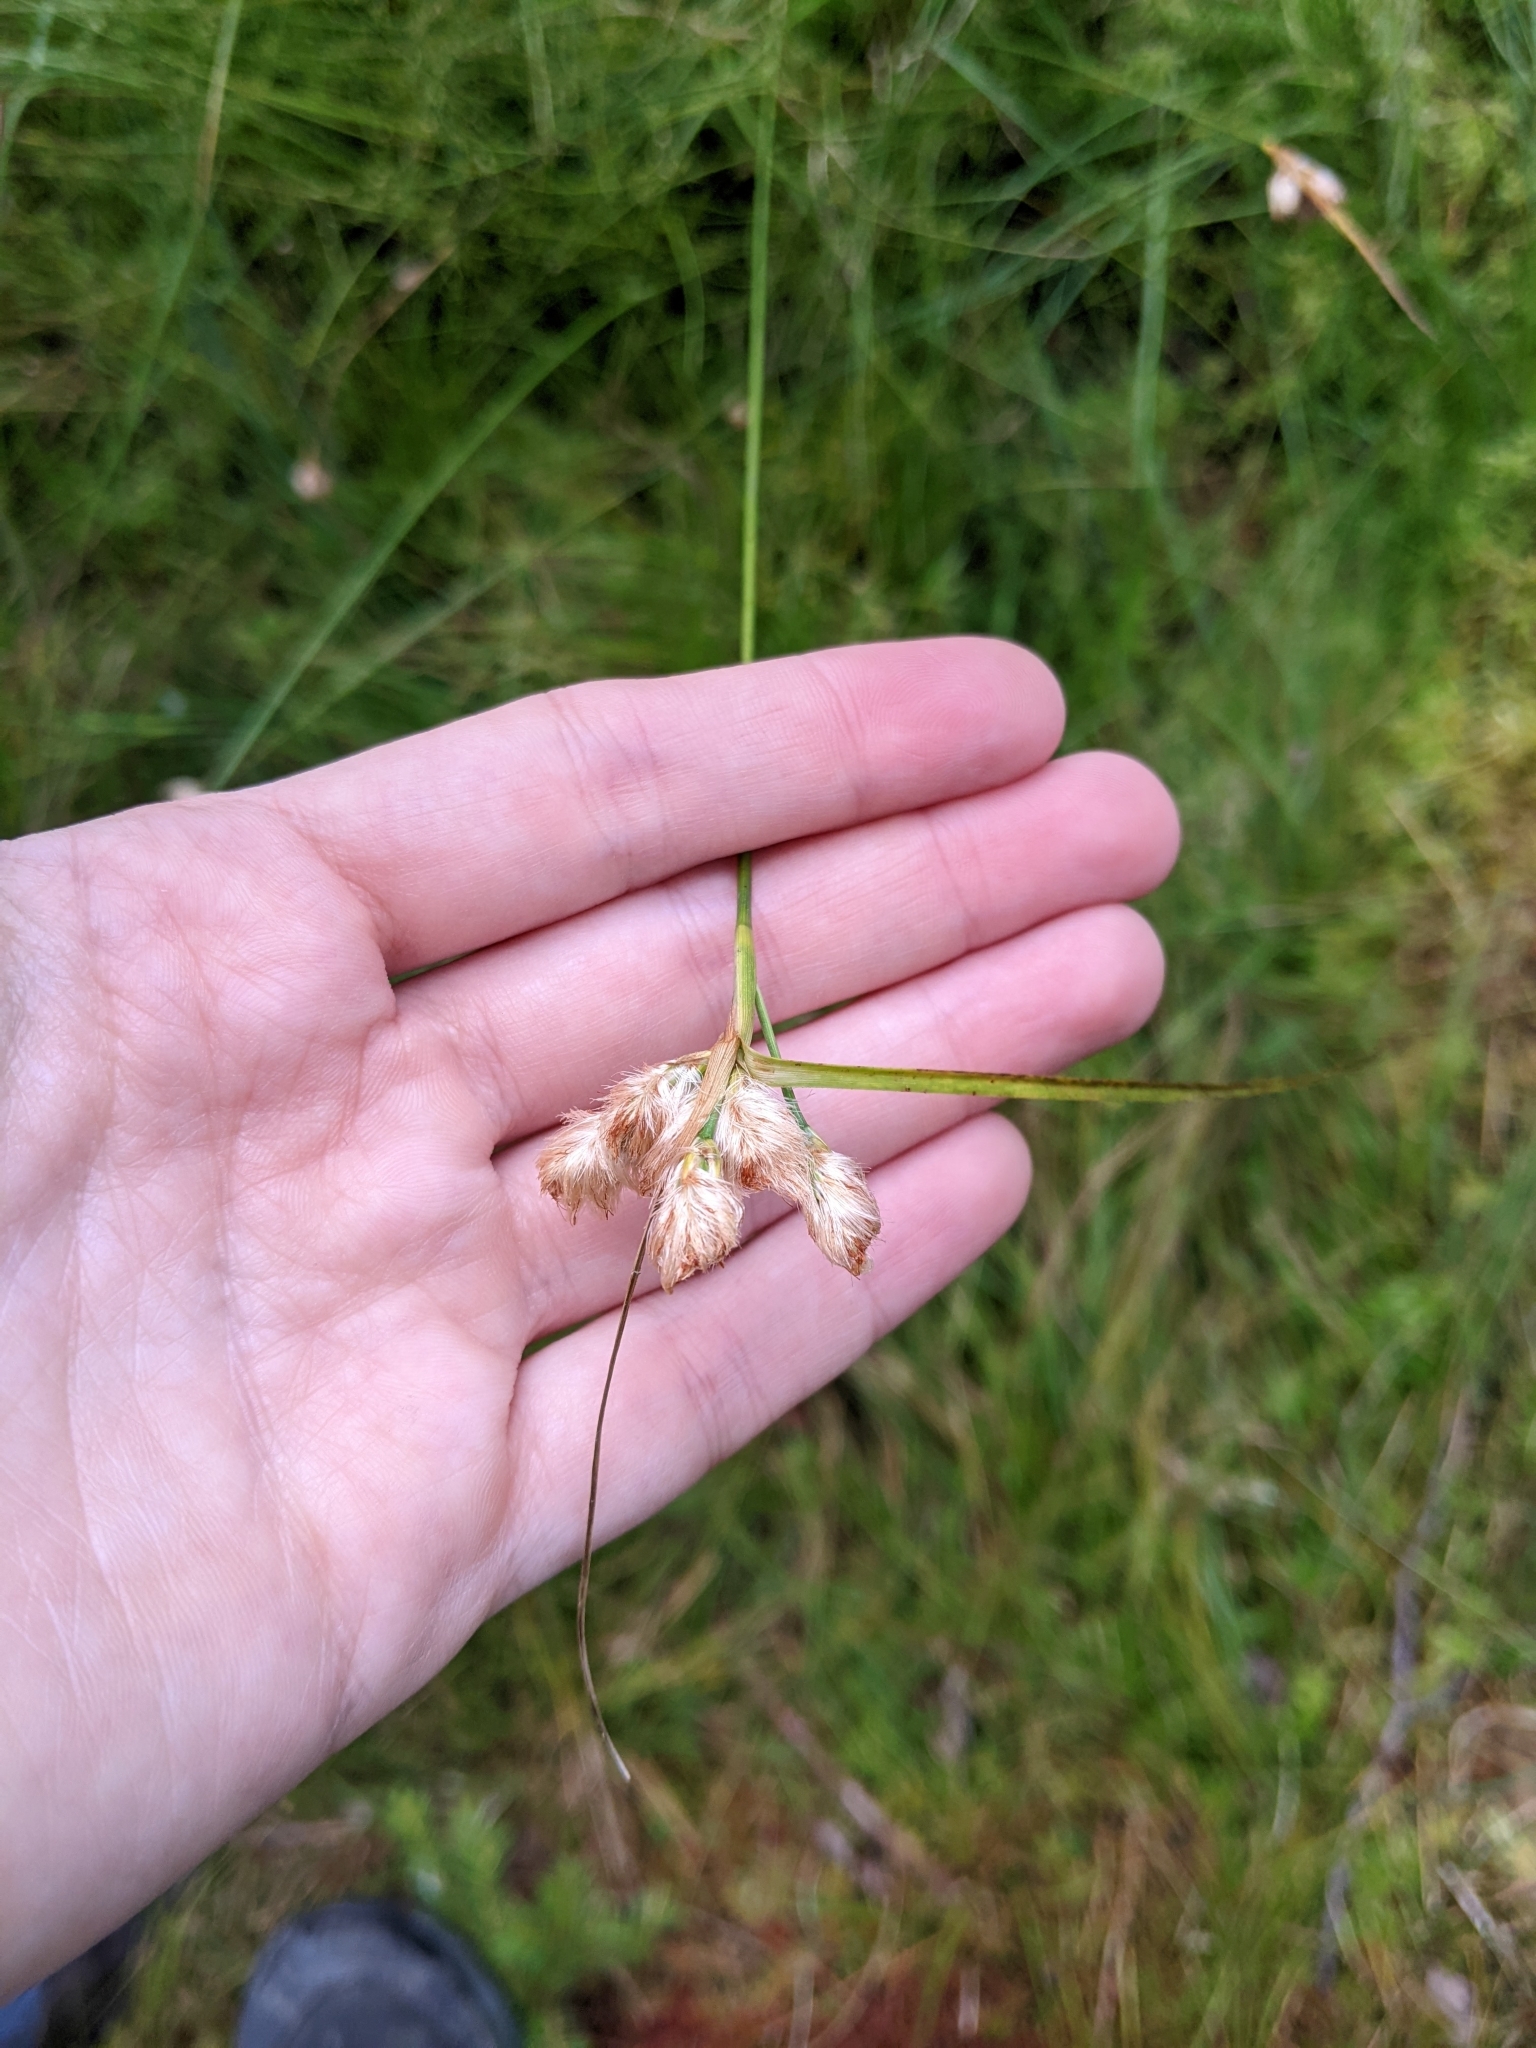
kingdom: Plantae
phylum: Tracheophyta
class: Liliopsida
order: Poales
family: Cyperaceae
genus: Eriophorum
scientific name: Eriophorum virginicum
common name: Tawny cottongrass
